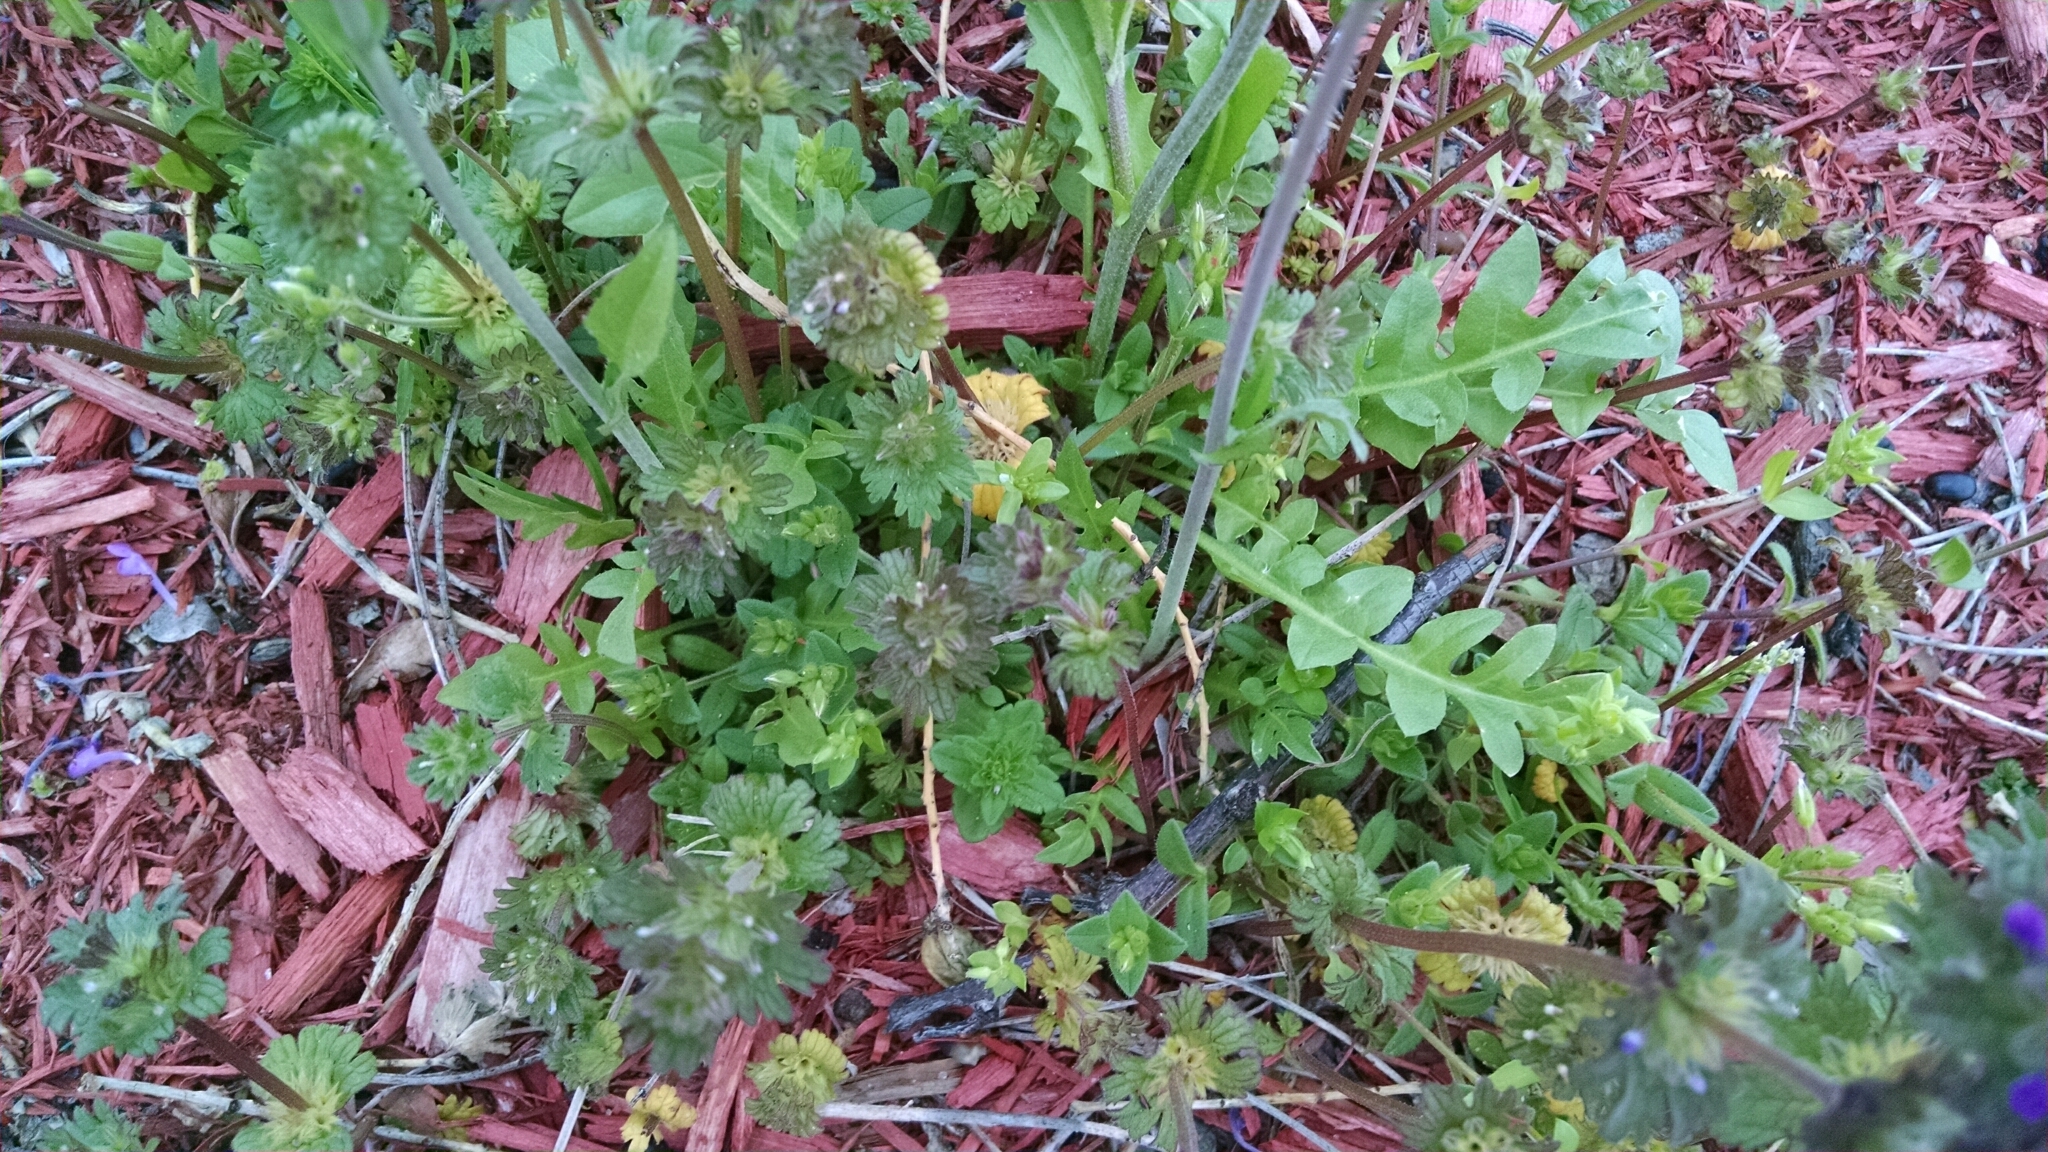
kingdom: Plantae
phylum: Tracheophyta
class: Magnoliopsida
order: Brassicales
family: Brassicaceae
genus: Capsella
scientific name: Capsella bursa-pastoris
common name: Shepherd's purse
